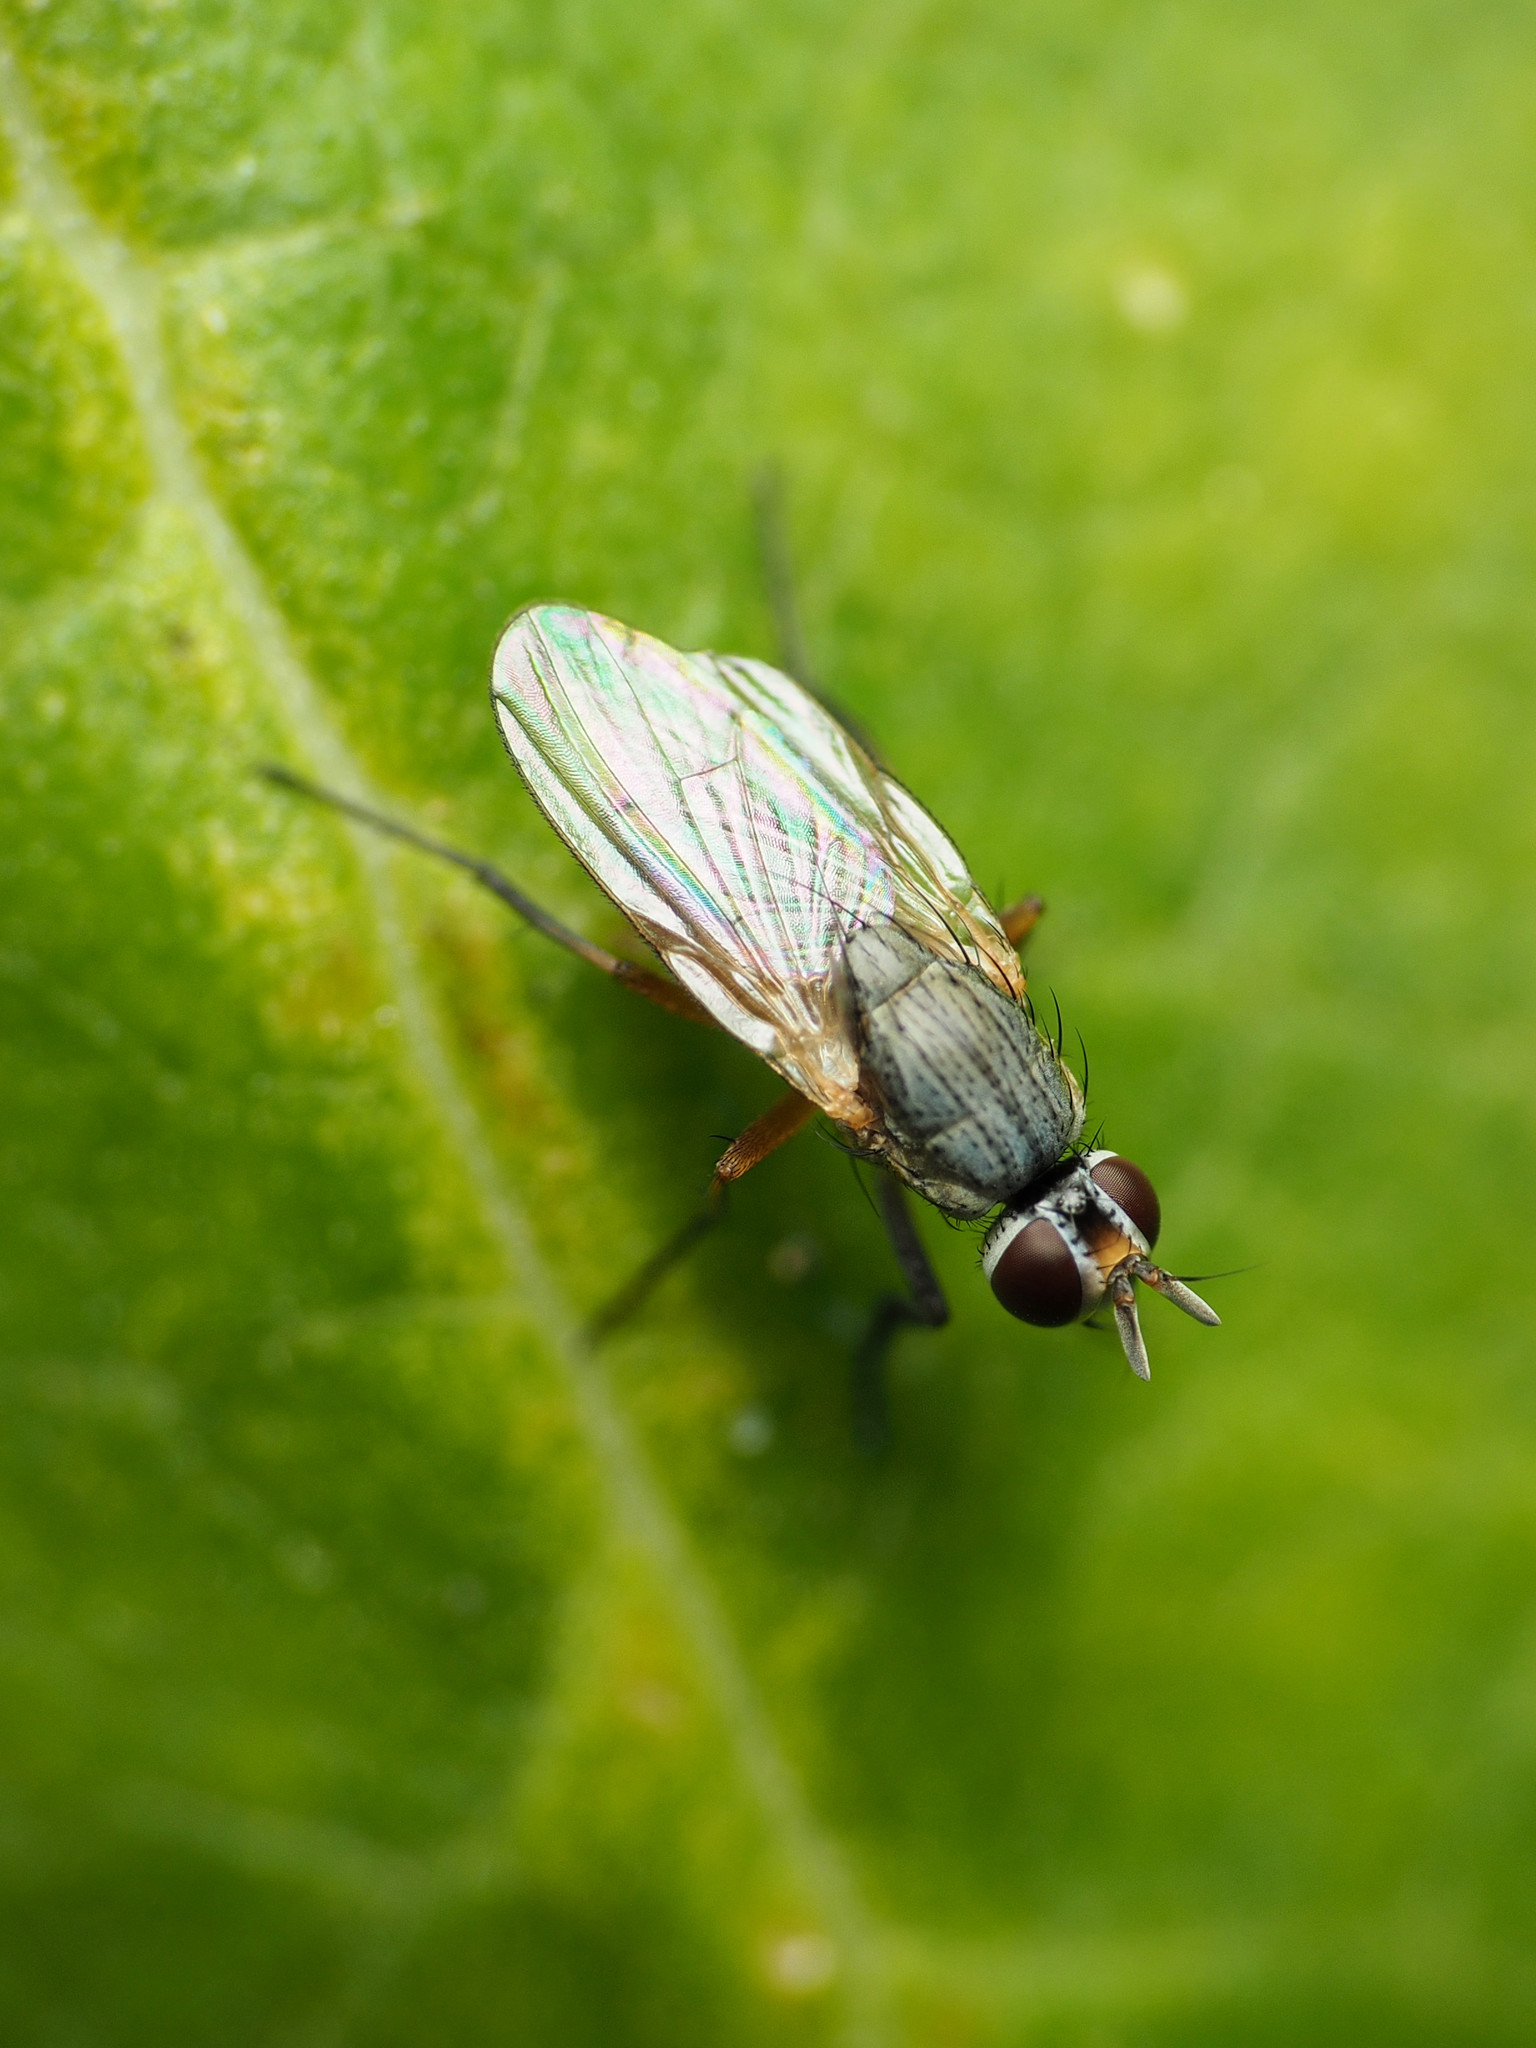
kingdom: Animalia
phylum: Arthropoda
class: Insecta
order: Diptera
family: Muscidae
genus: Atherigona
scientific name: Atherigona reversura
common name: Bermudagrass stem maggot
